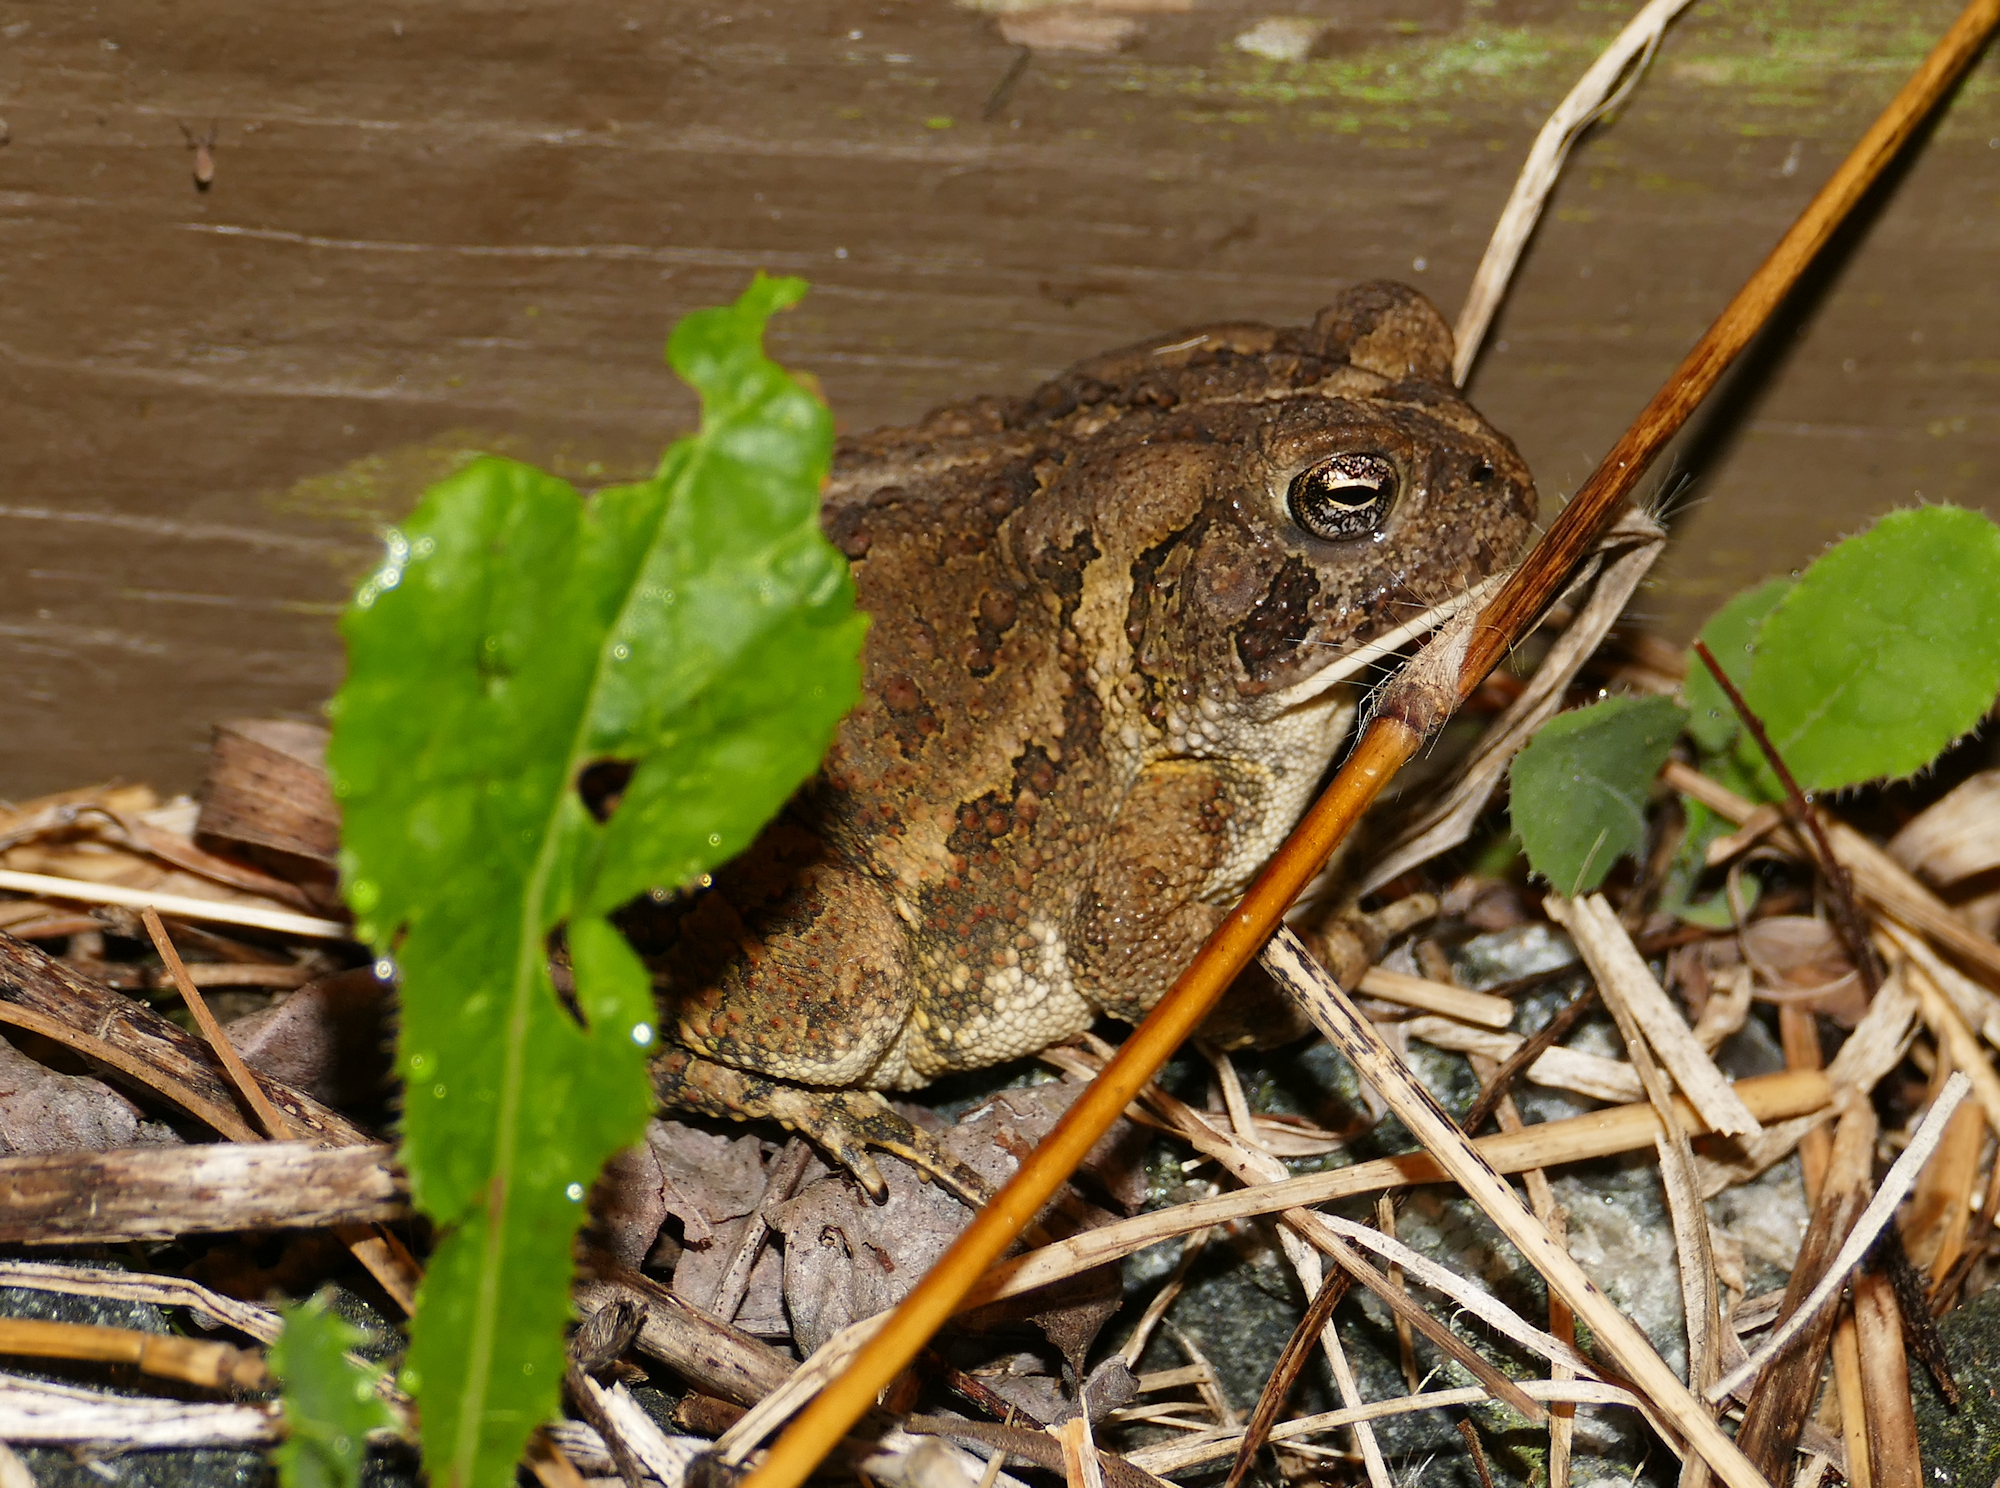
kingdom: Animalia
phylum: Chordata
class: Amphibia
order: Anura
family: Bufonidae
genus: Anaxyrus
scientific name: Anaxyrus fowleri
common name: Fowler's toad
